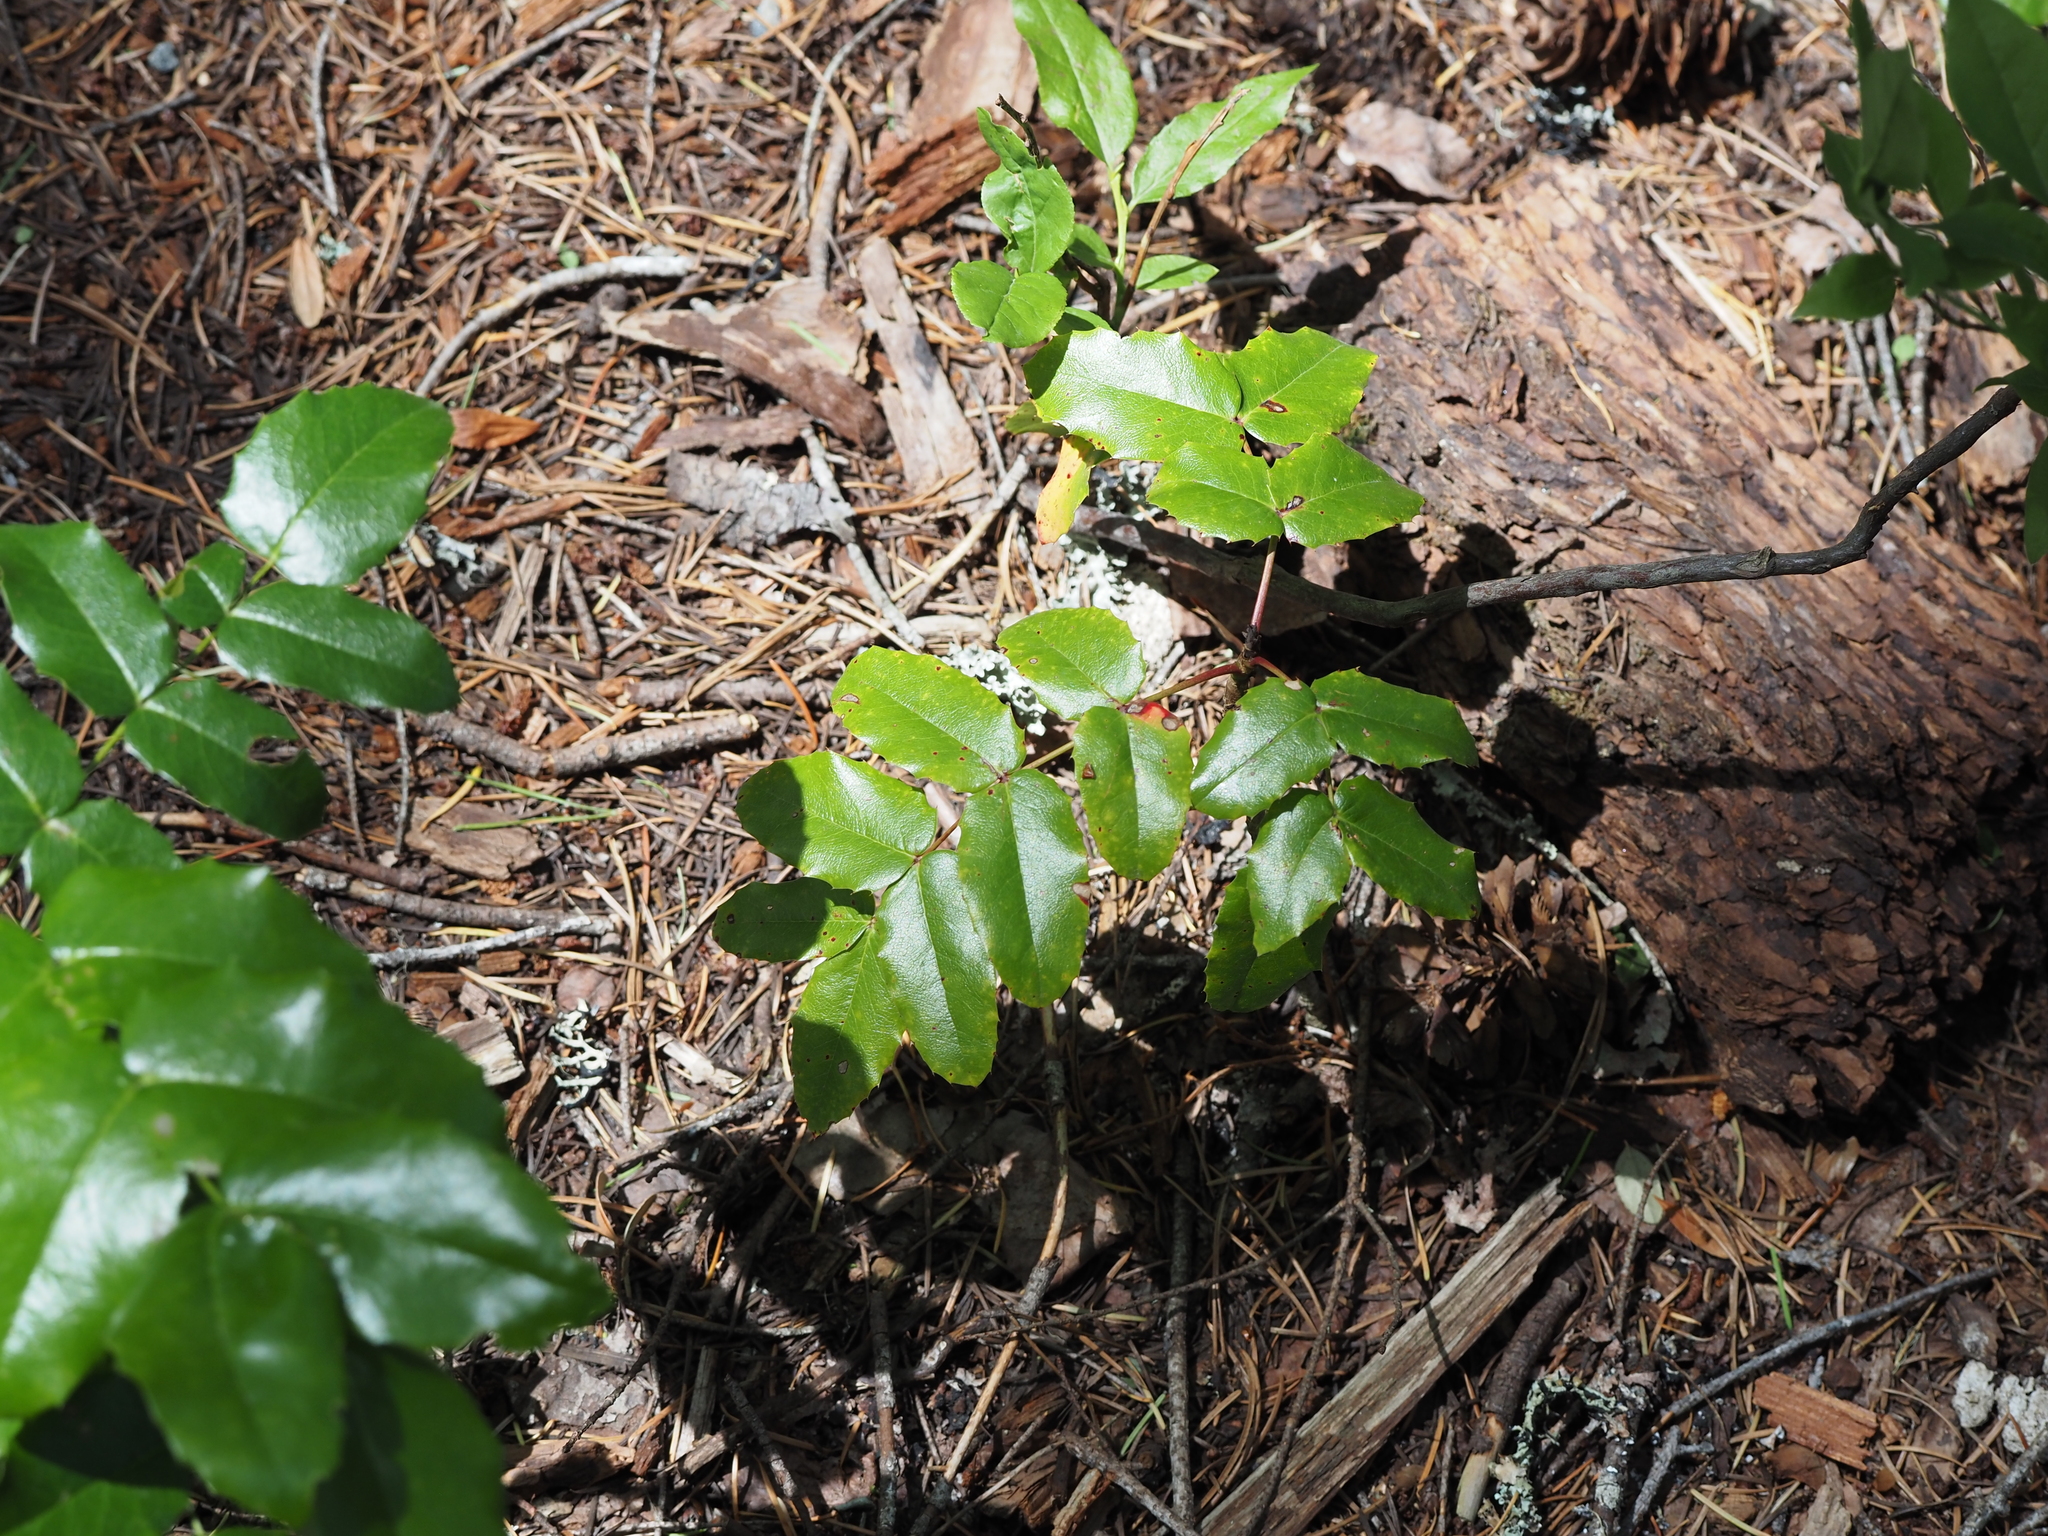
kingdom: Plantae
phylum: Tracheophyta
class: Magnoliopsida
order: Ranunculales
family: Berberidaceae
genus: Mahonia
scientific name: Mahonia aquifolium
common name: Oregon-grape
